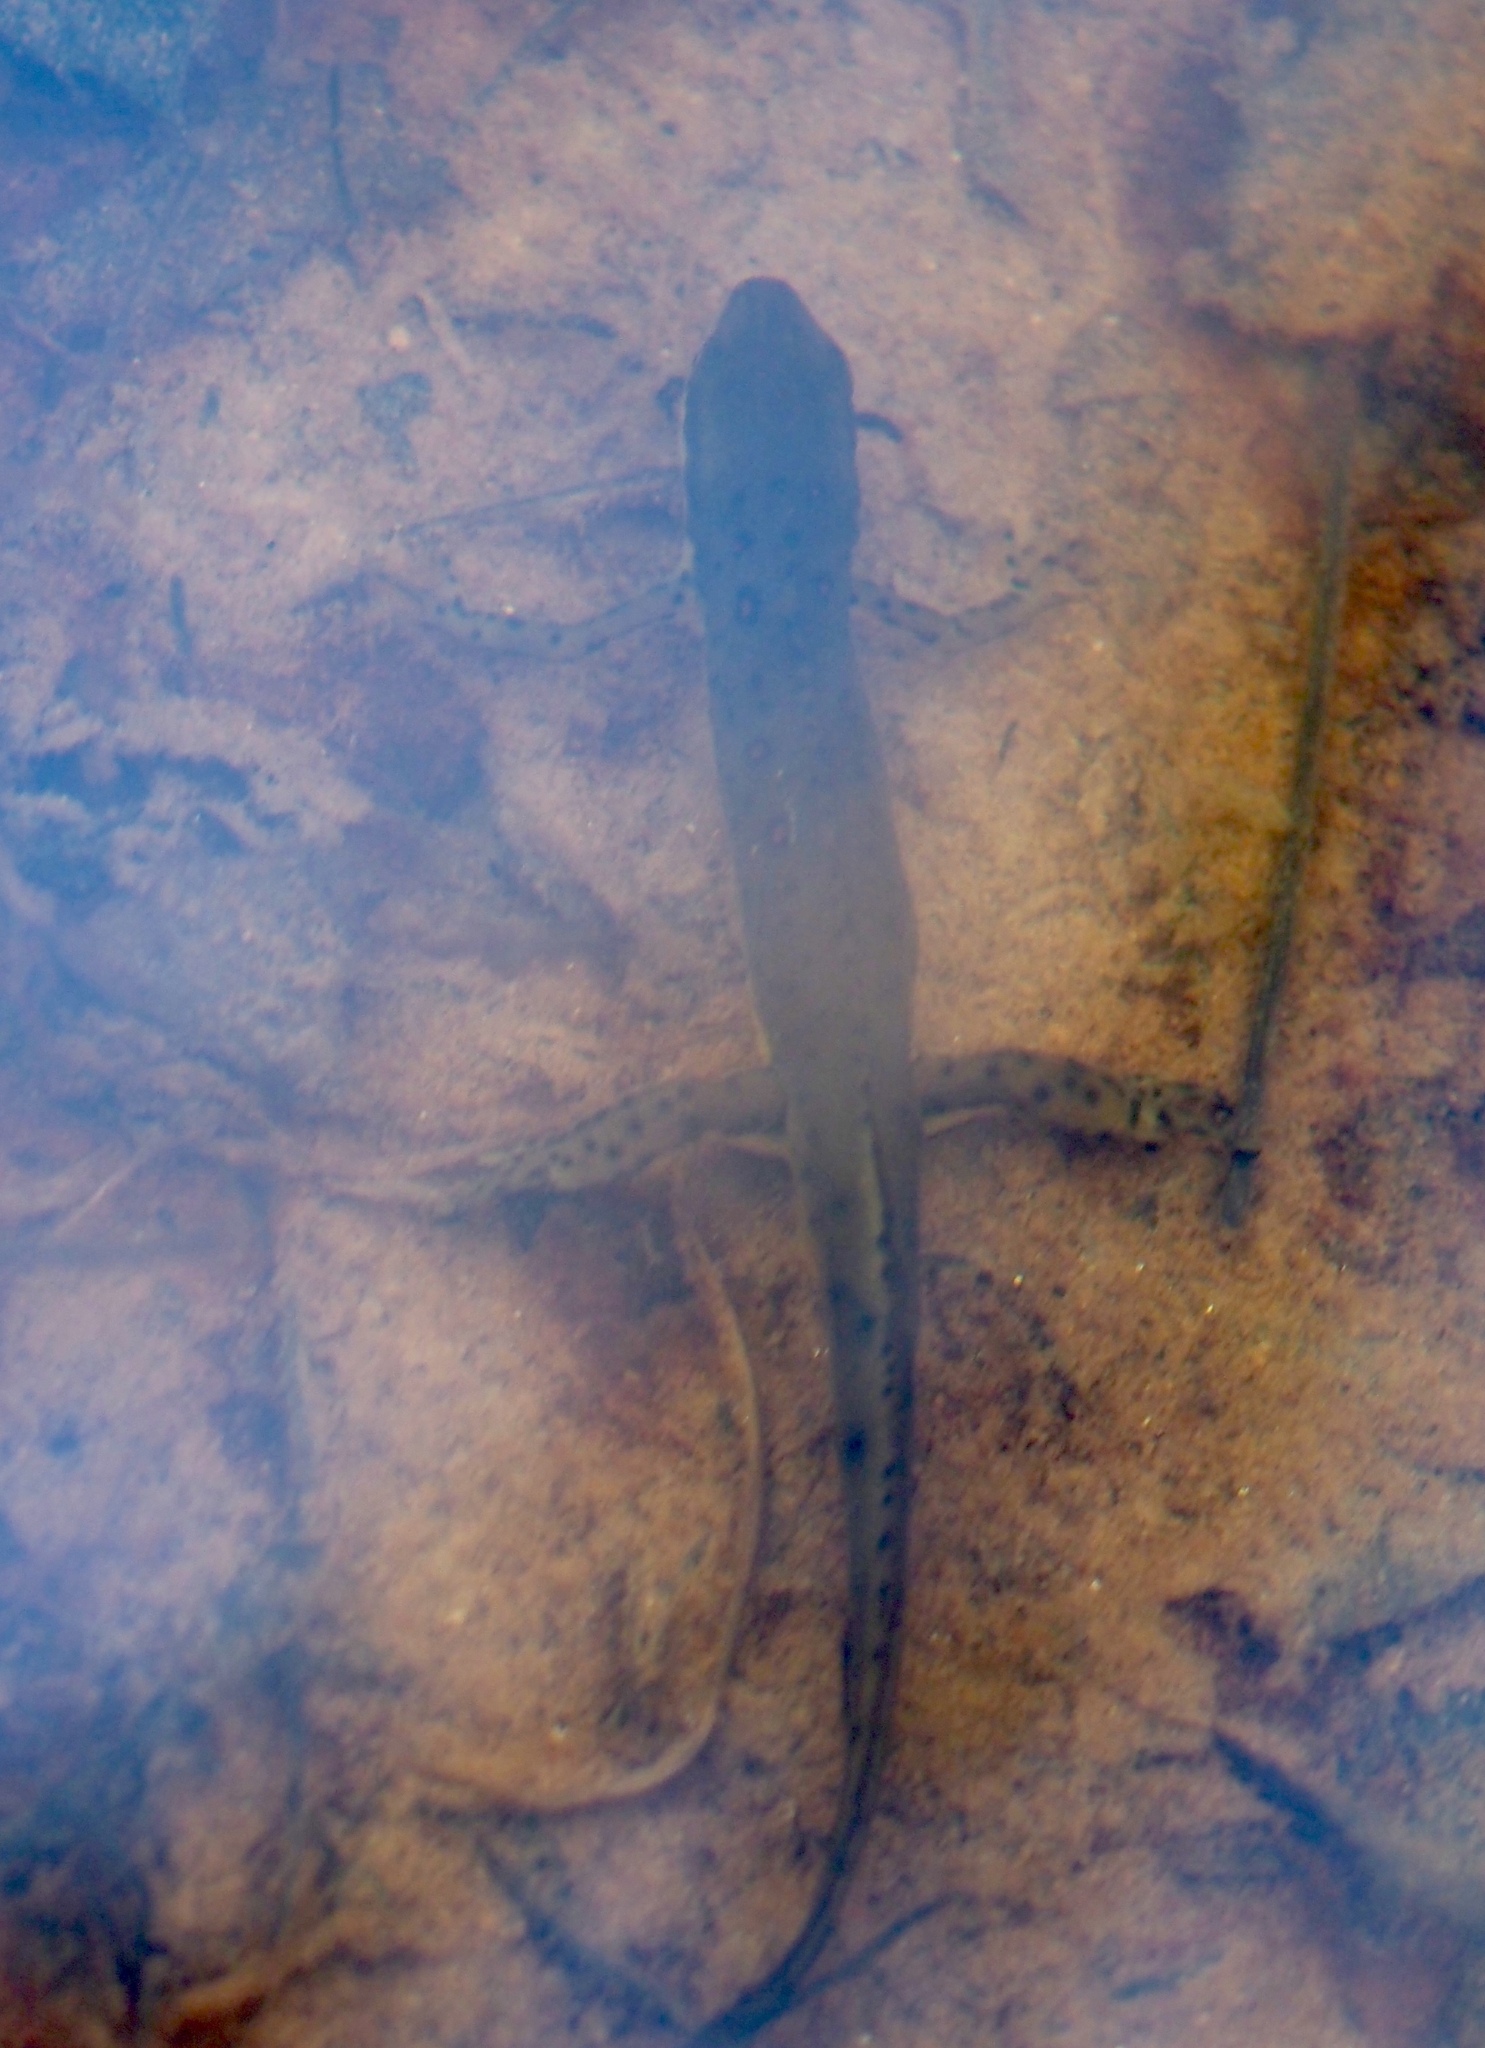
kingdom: Animalia
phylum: Chordata
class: Amphibia
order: Caudata
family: Salamandridae
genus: Notophthalmus
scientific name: Notophthalmus viridescens
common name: Eastern newt
